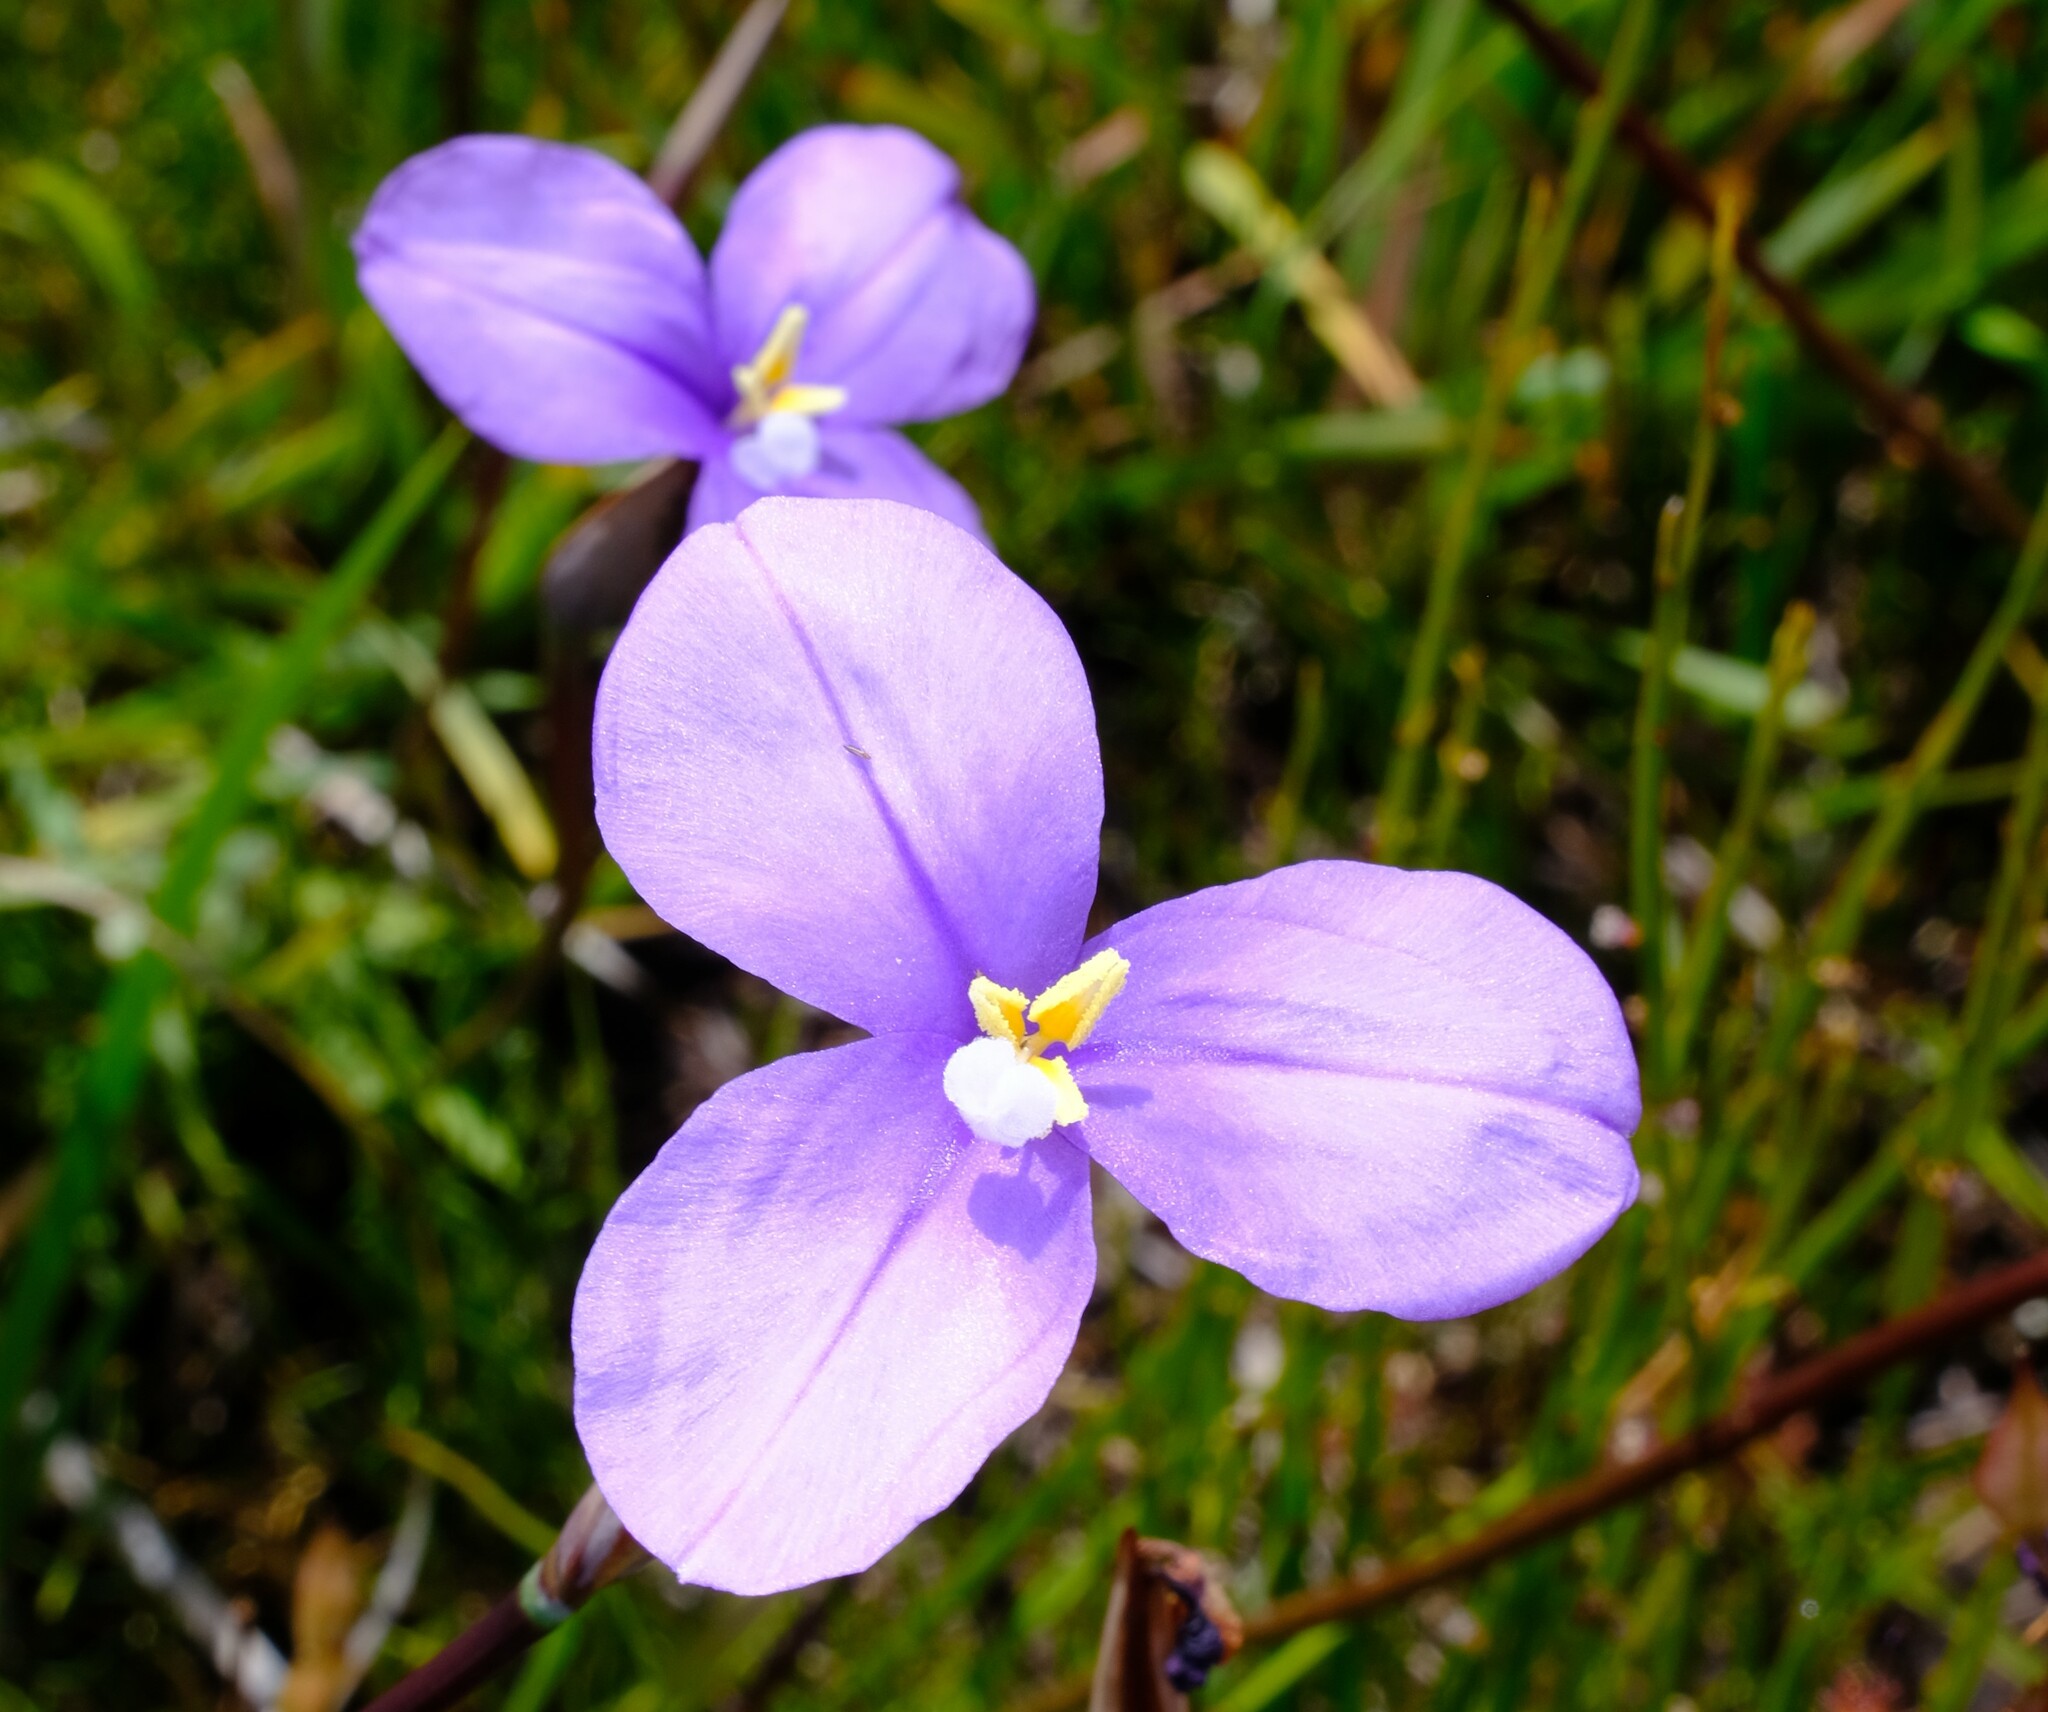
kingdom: Plantae
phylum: Tracheophyta
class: Liliopsida
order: Asparagales
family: Iridaceae
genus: Patersonia
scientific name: Patersonia occidentalis
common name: Long purple-flag
